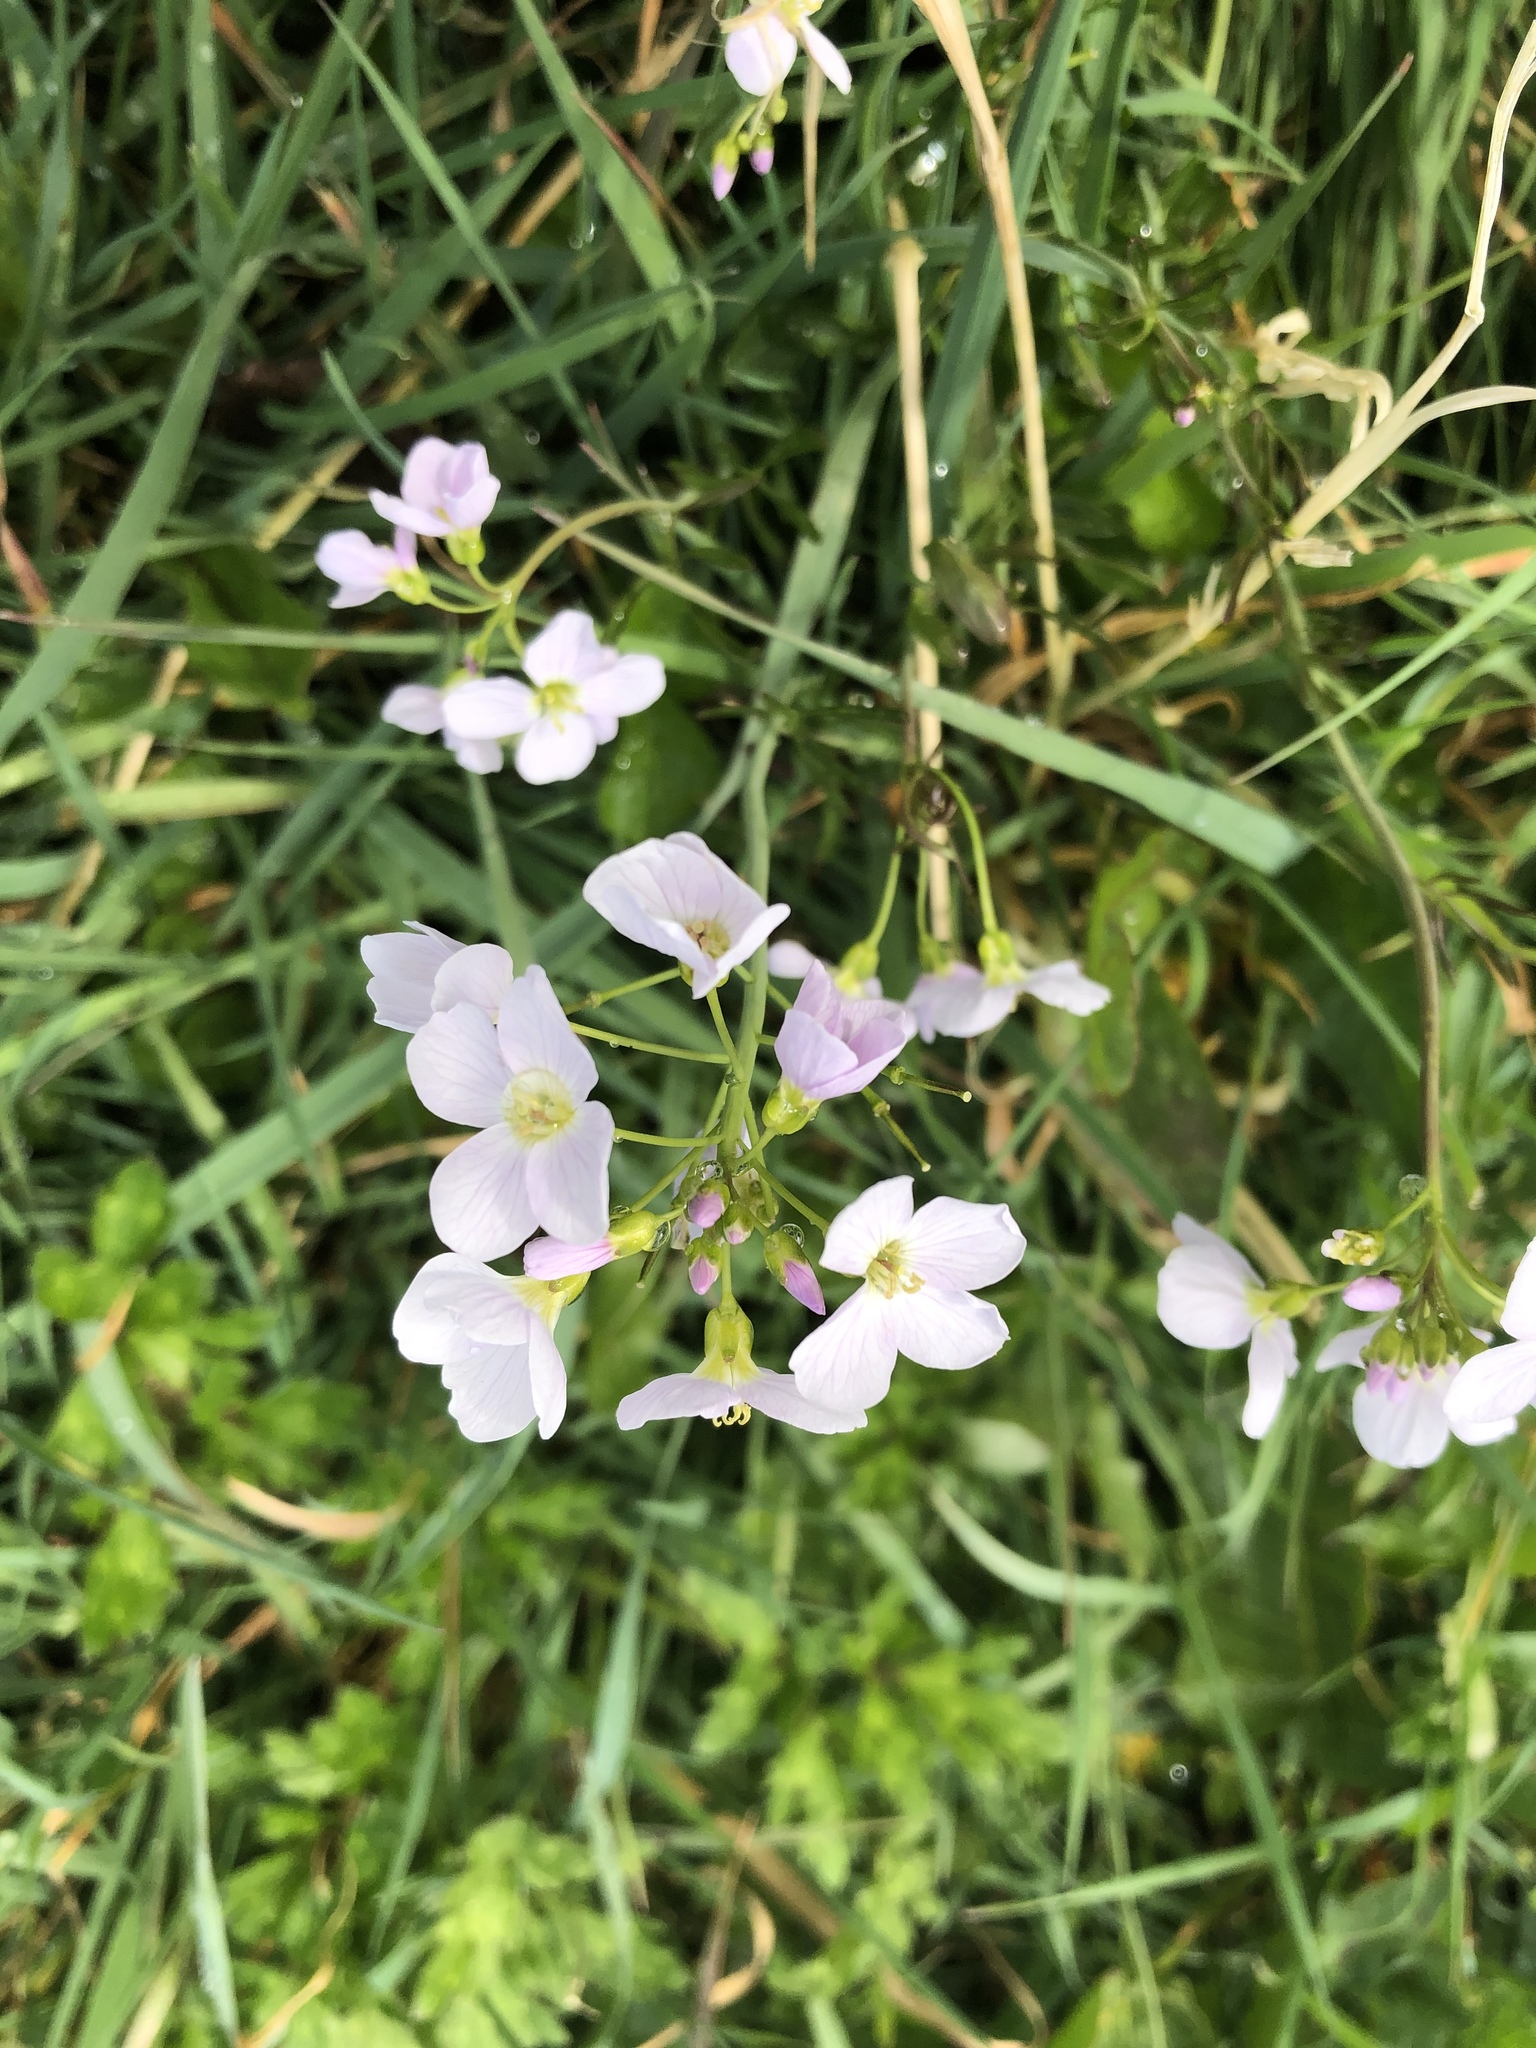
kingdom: Plantae
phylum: Tracheophyta
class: Magnoliopsida
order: Brassicales
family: Brassicaceae
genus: Cardamine
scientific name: Cardamine pratensis
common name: Cuckoo flower
